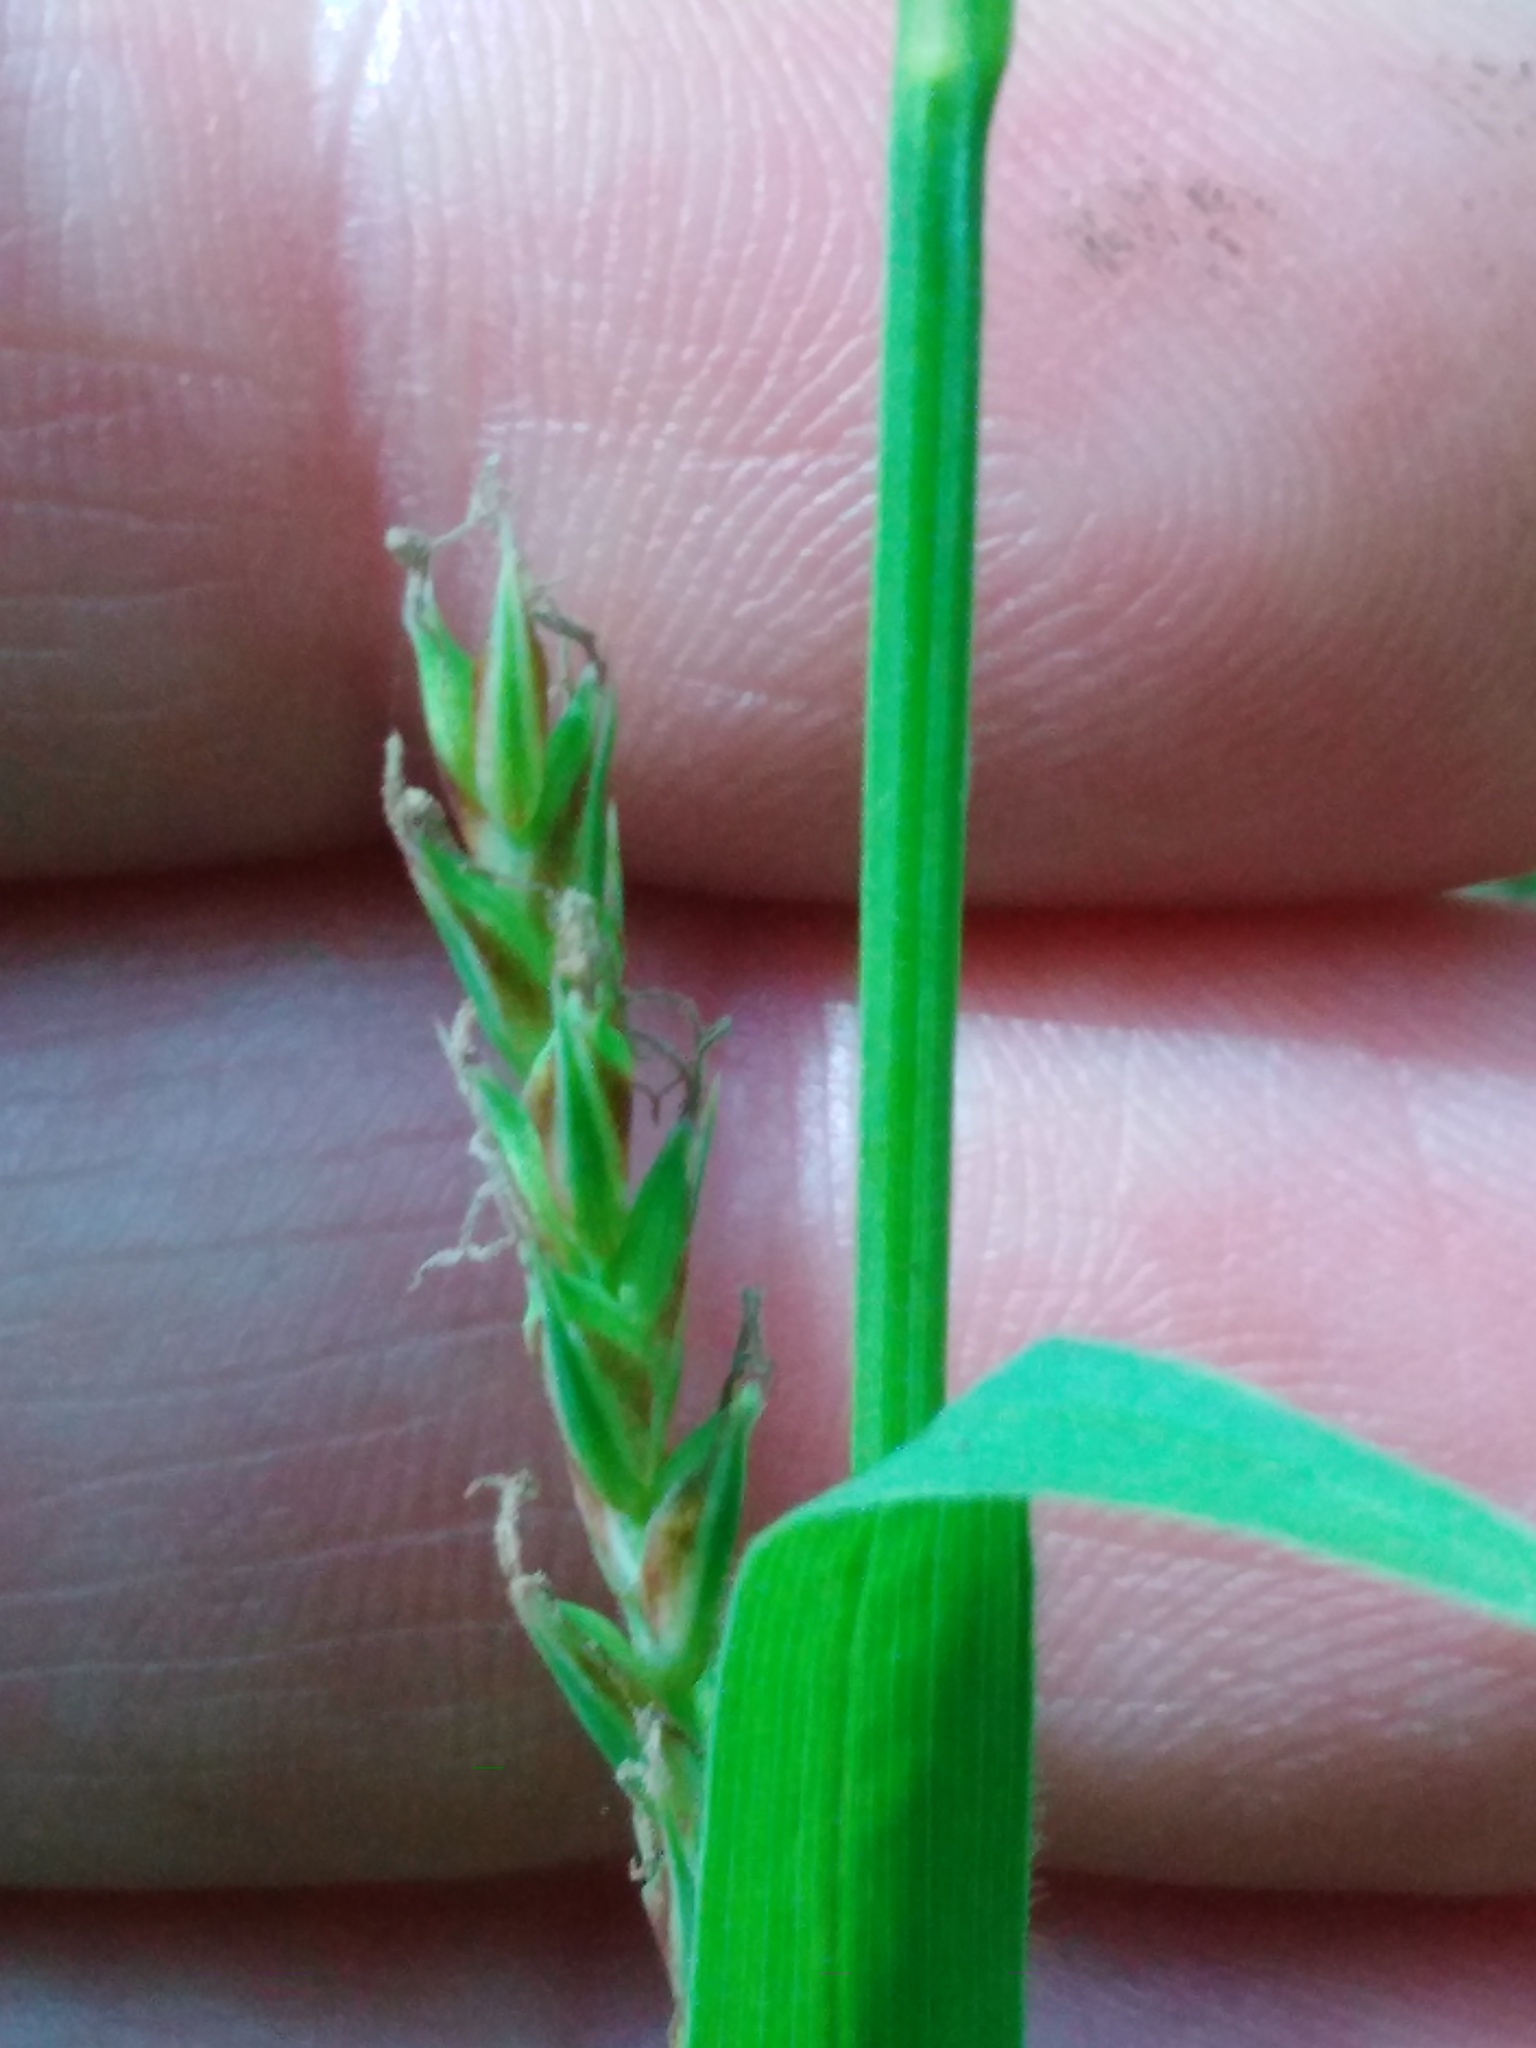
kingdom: Plantae
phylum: Tracheophyta
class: Liliopsida
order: Poales
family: Cyperaceae
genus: Carex
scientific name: Carex pilosa
